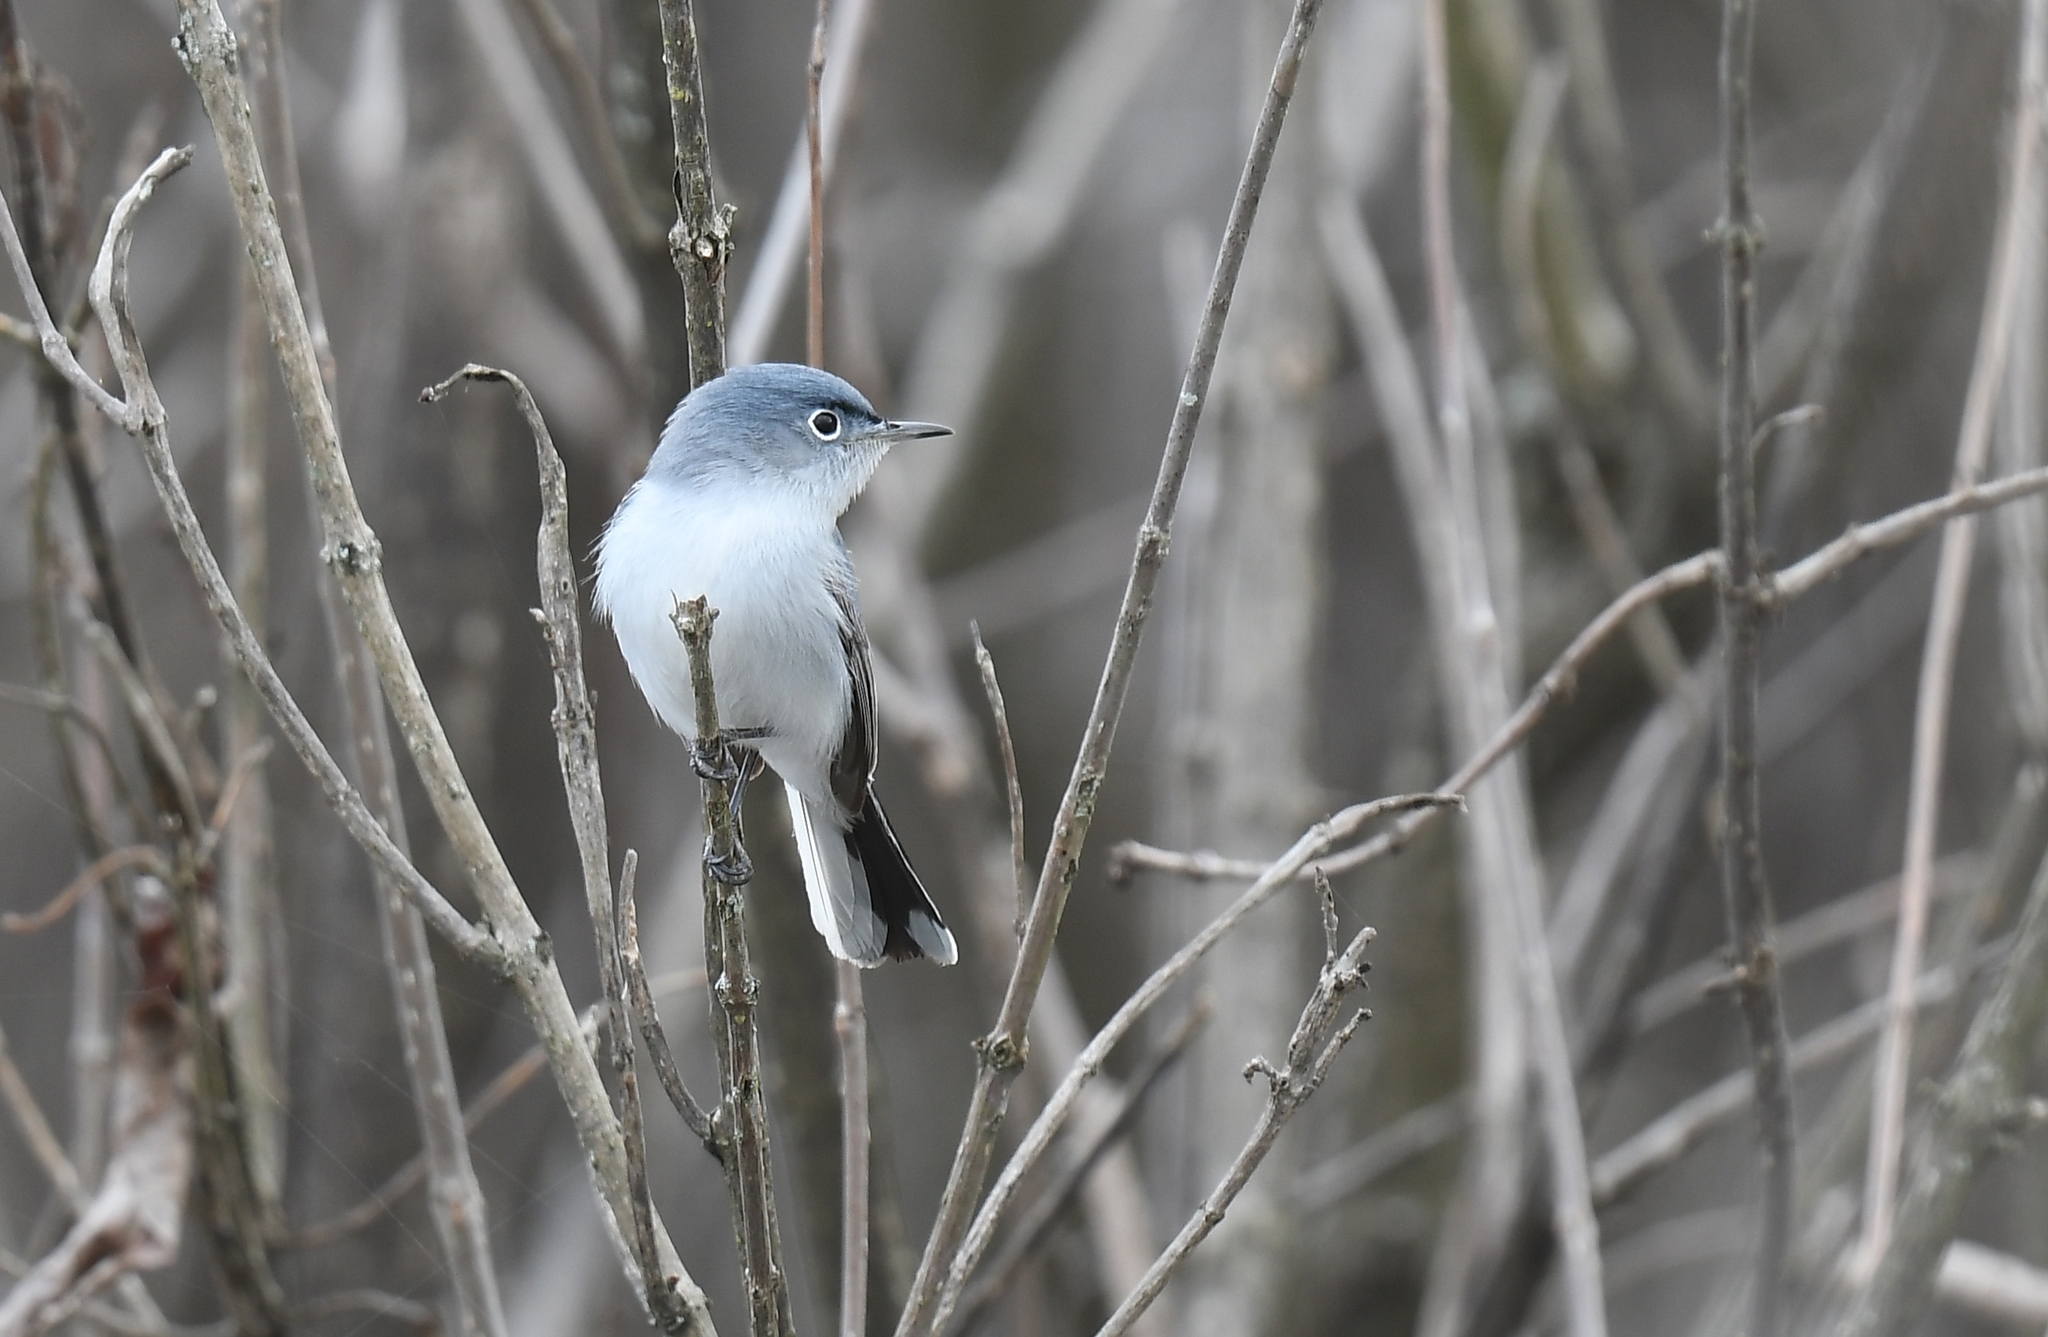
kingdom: Animalia
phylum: Chordata
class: Aves
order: Passeriformes
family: Polioptilidae
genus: Polioptila
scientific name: Polioptila caerulea
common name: Blue-gray gnatcatcher
